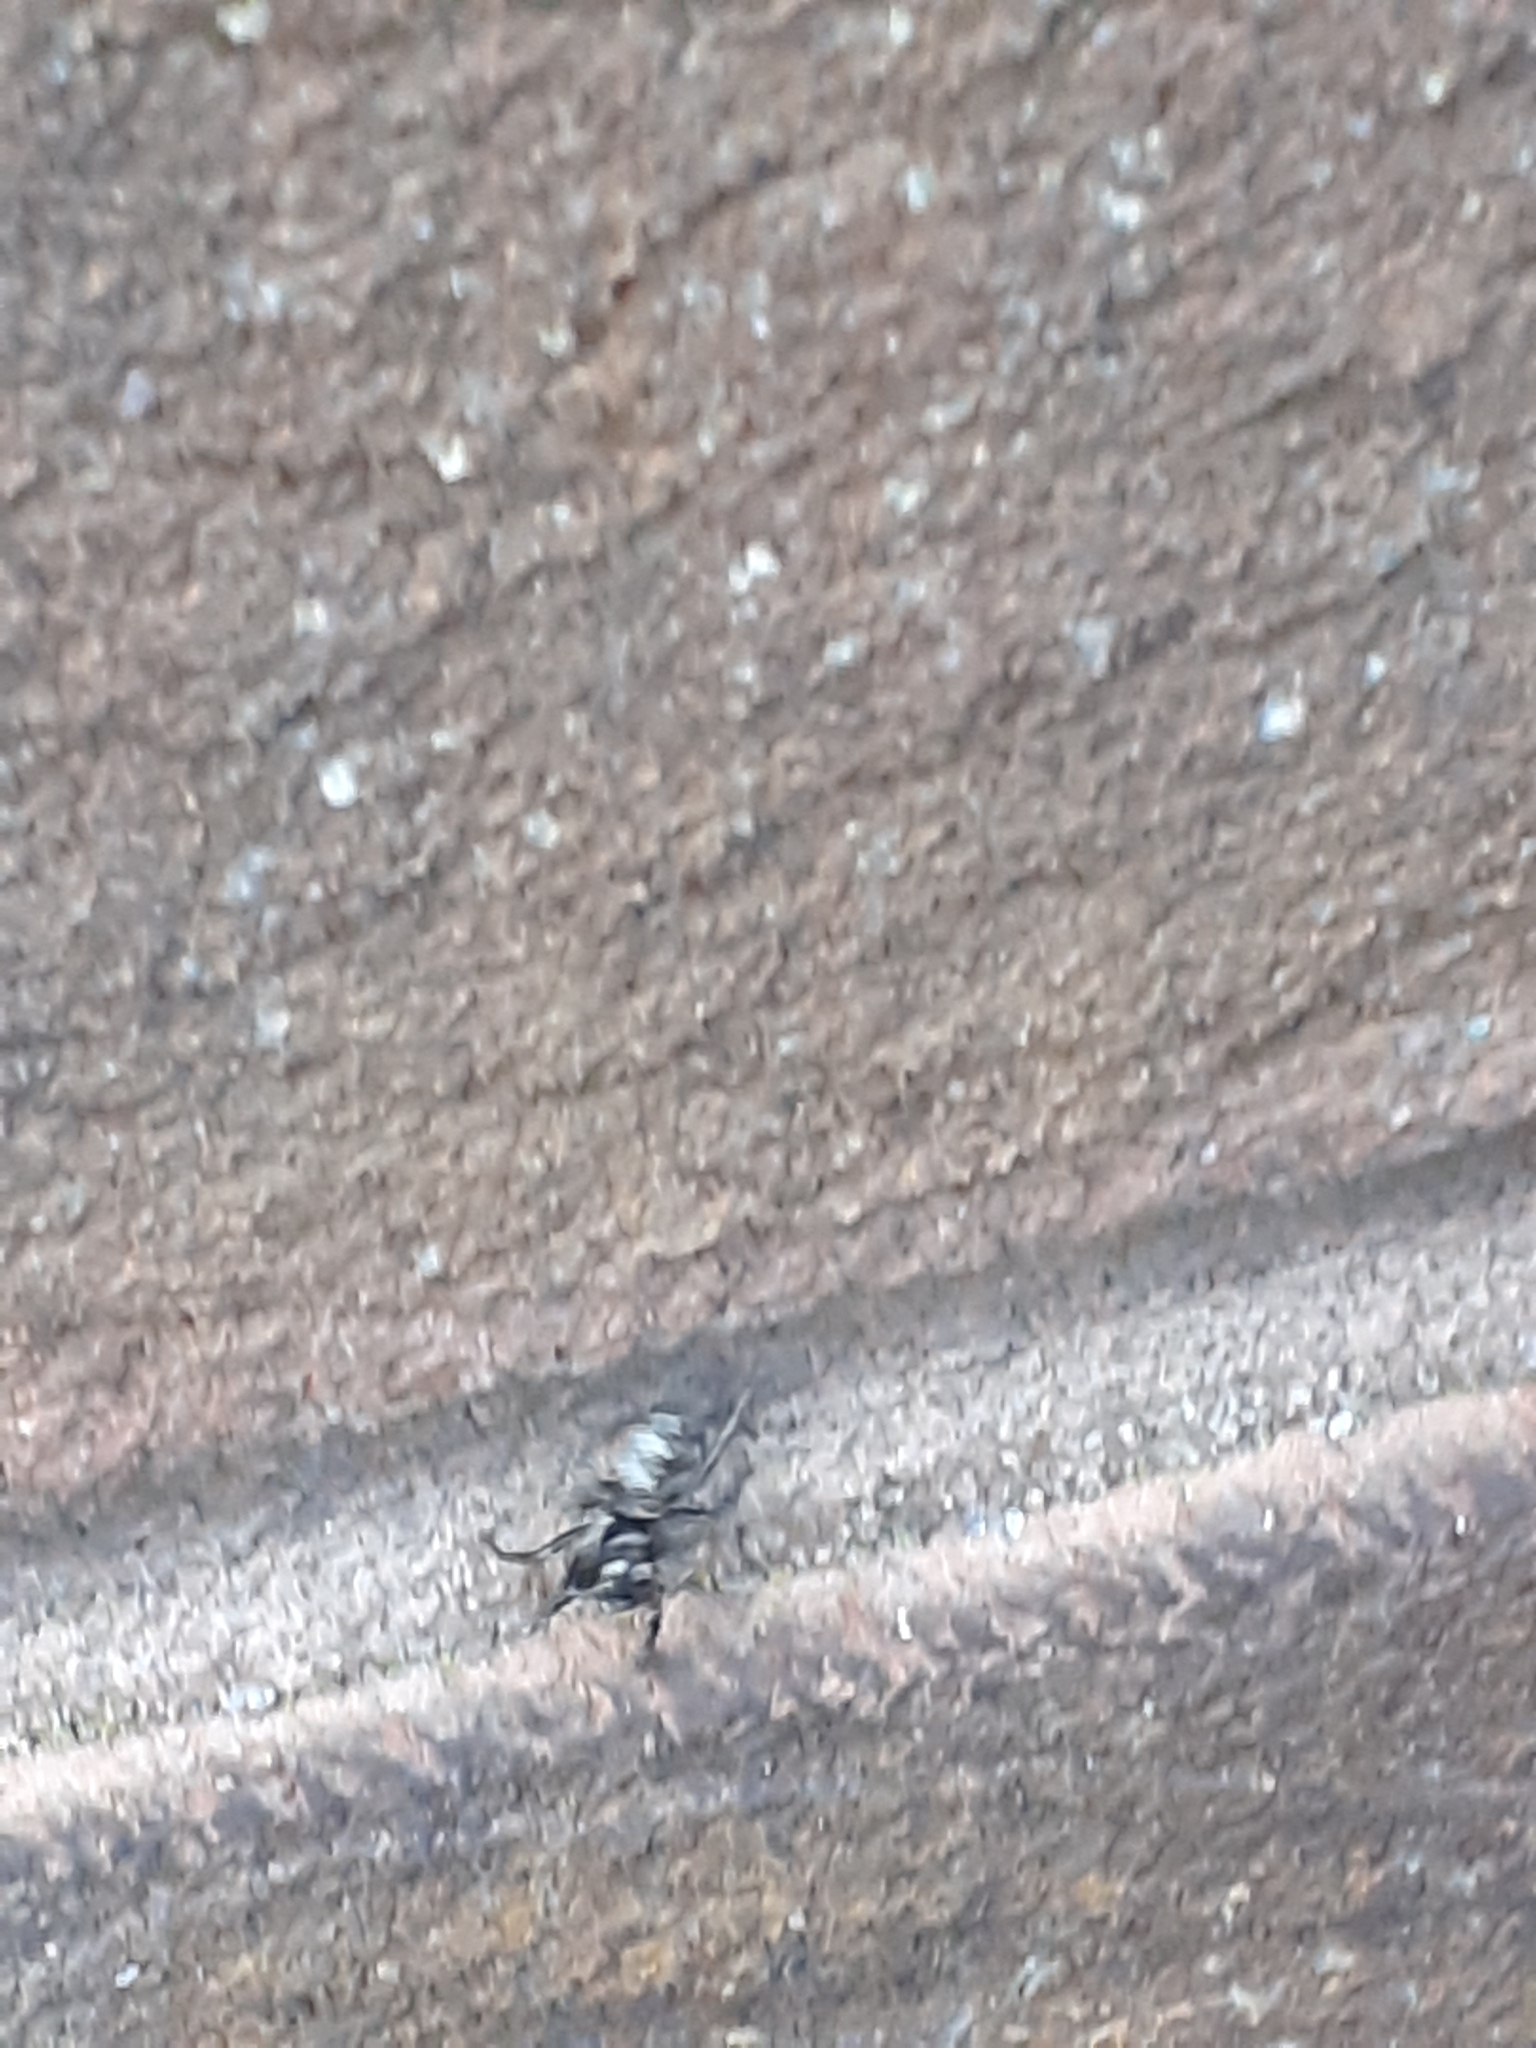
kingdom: Animalia
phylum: Arthropoda
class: Arachnida
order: Araneae
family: Salticidae
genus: Salticus
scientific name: Salticus scenicus
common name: Zebra jumper
